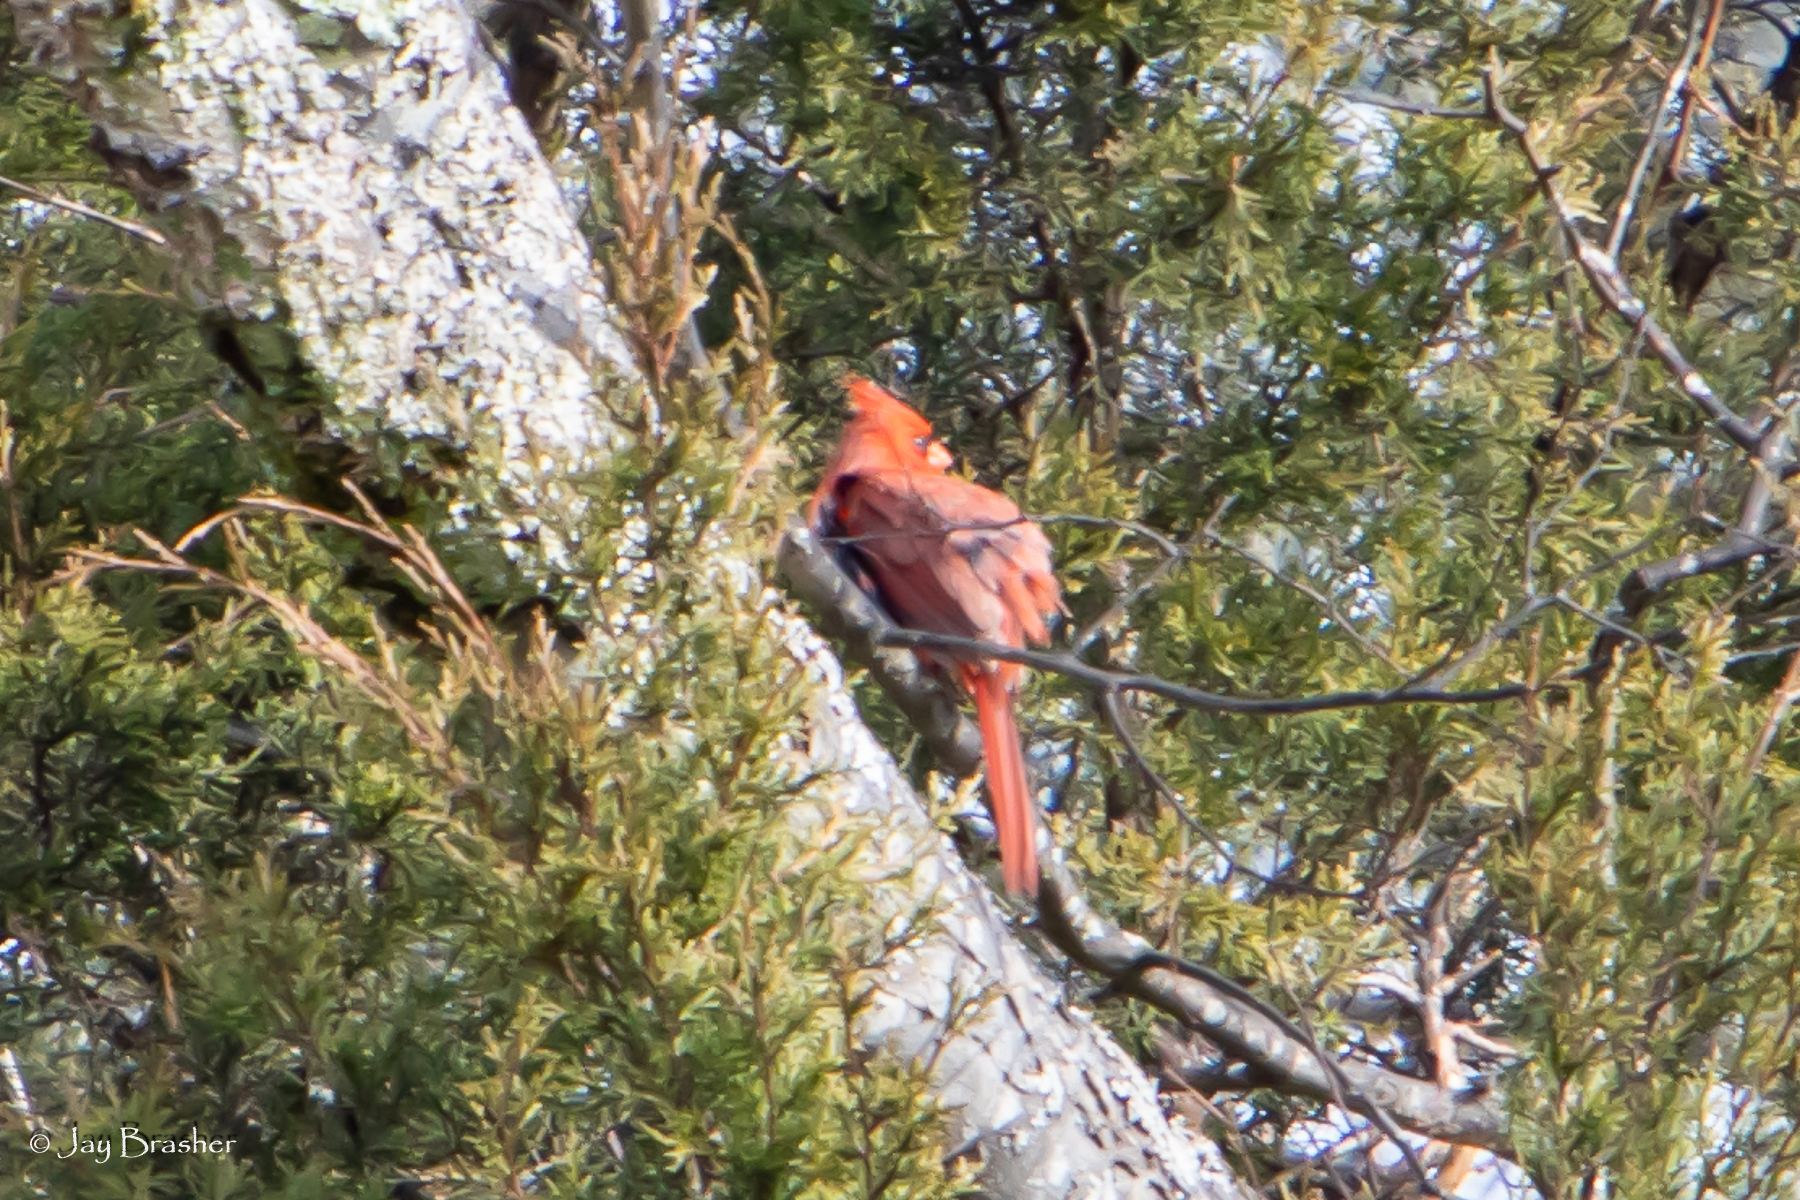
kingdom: Animalia
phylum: Chordata
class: Aves
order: Passeriformes
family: Cardinalidae
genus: Cardinalis
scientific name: Cardinalis cardinalis
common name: Northern cardinal
